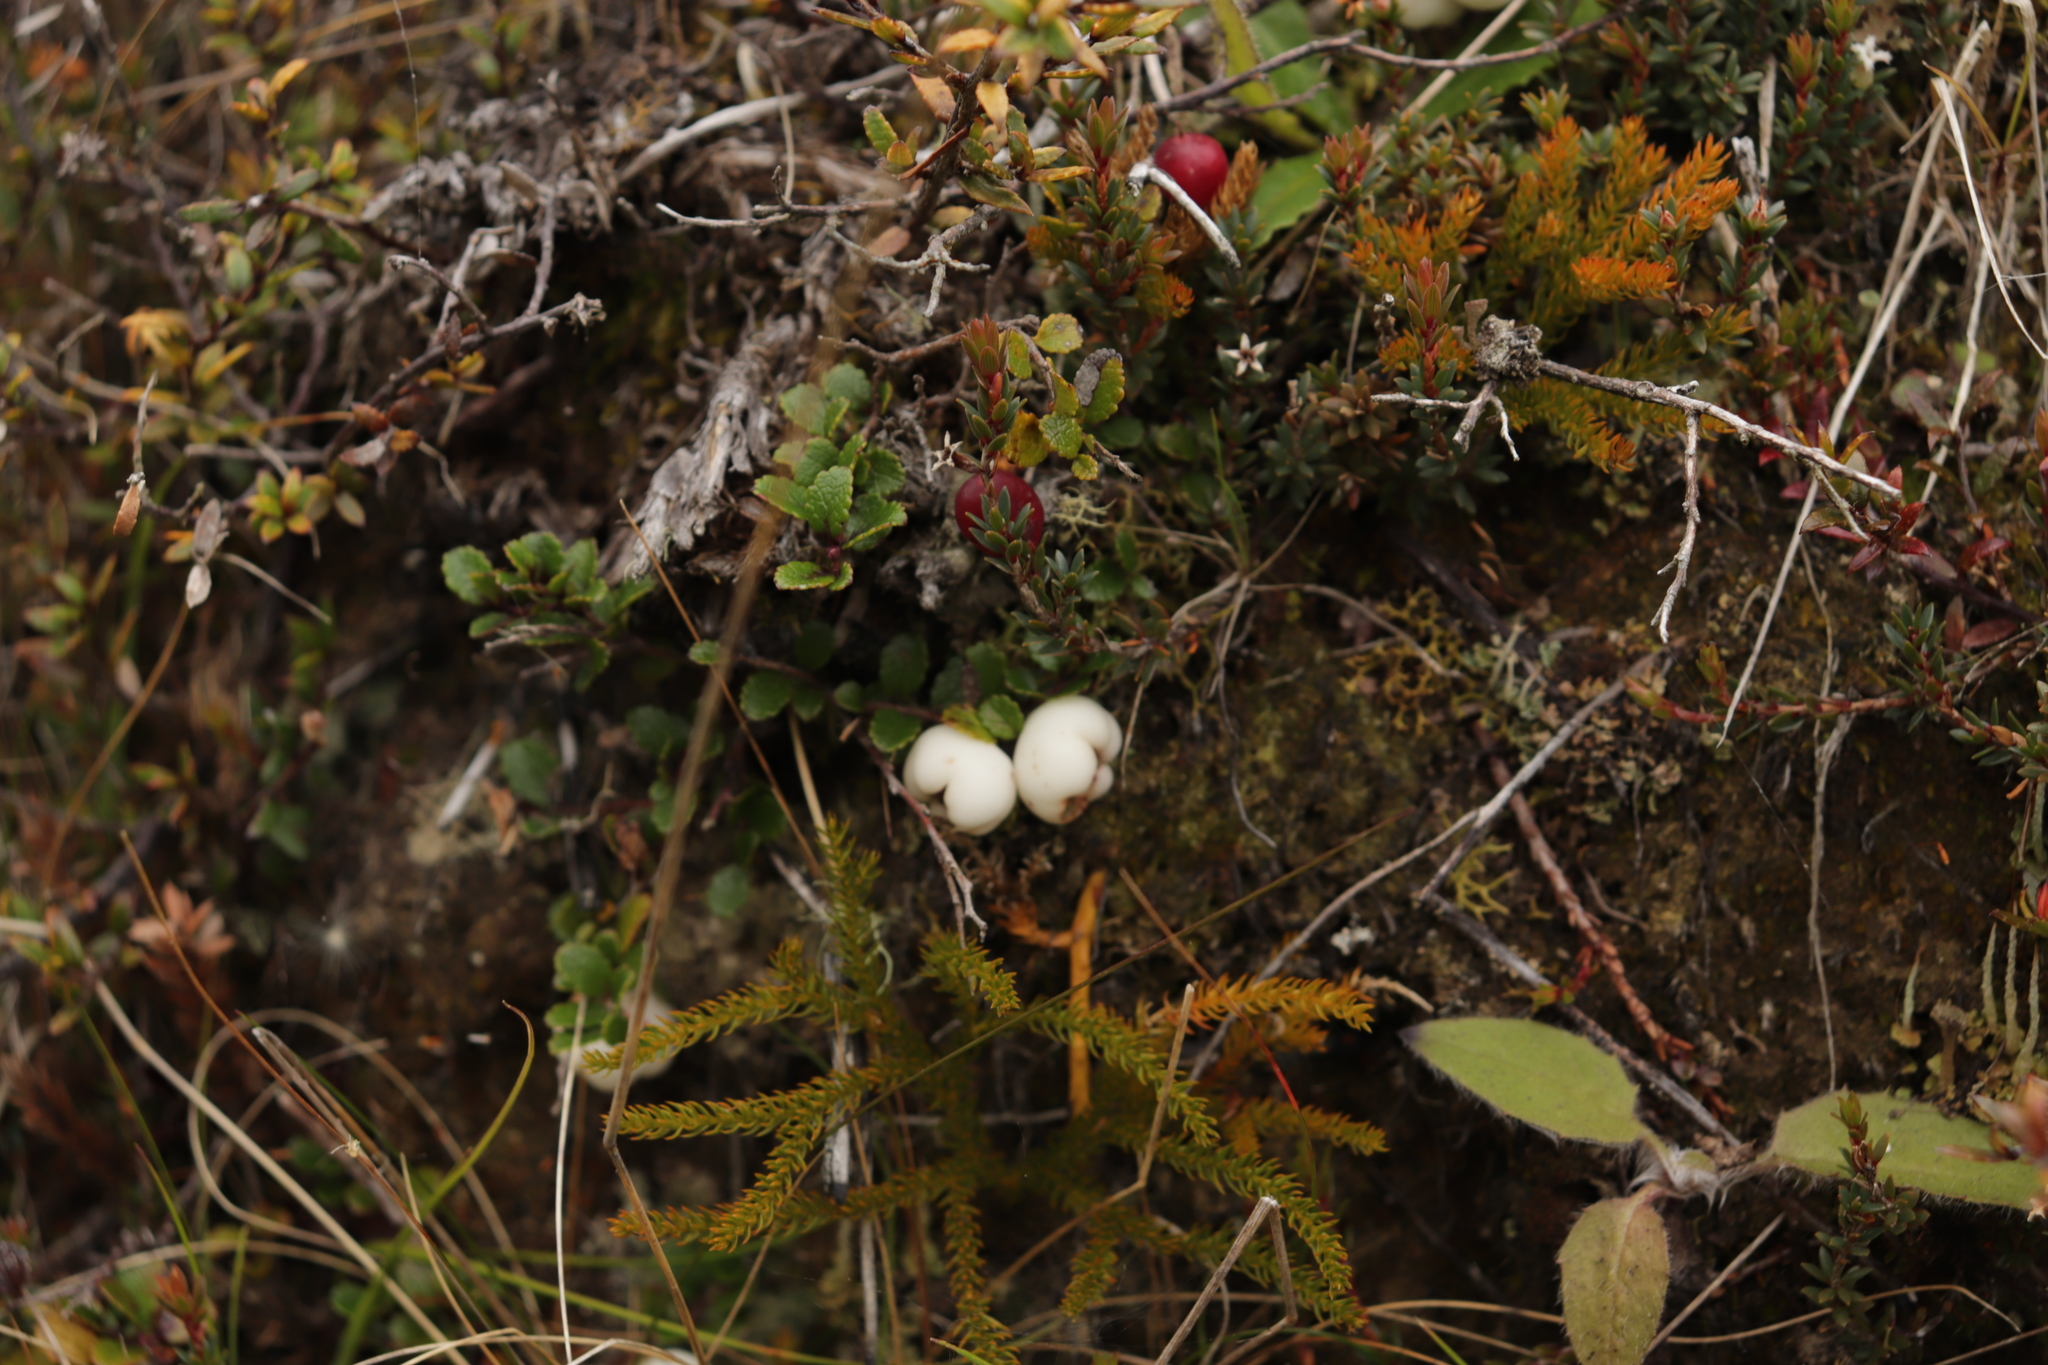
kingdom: Plantae
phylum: Tracheophyta
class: Magnoliopsida
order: Ericales
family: Ericaceae
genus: Gaultheria
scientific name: Gaultheria depressa
